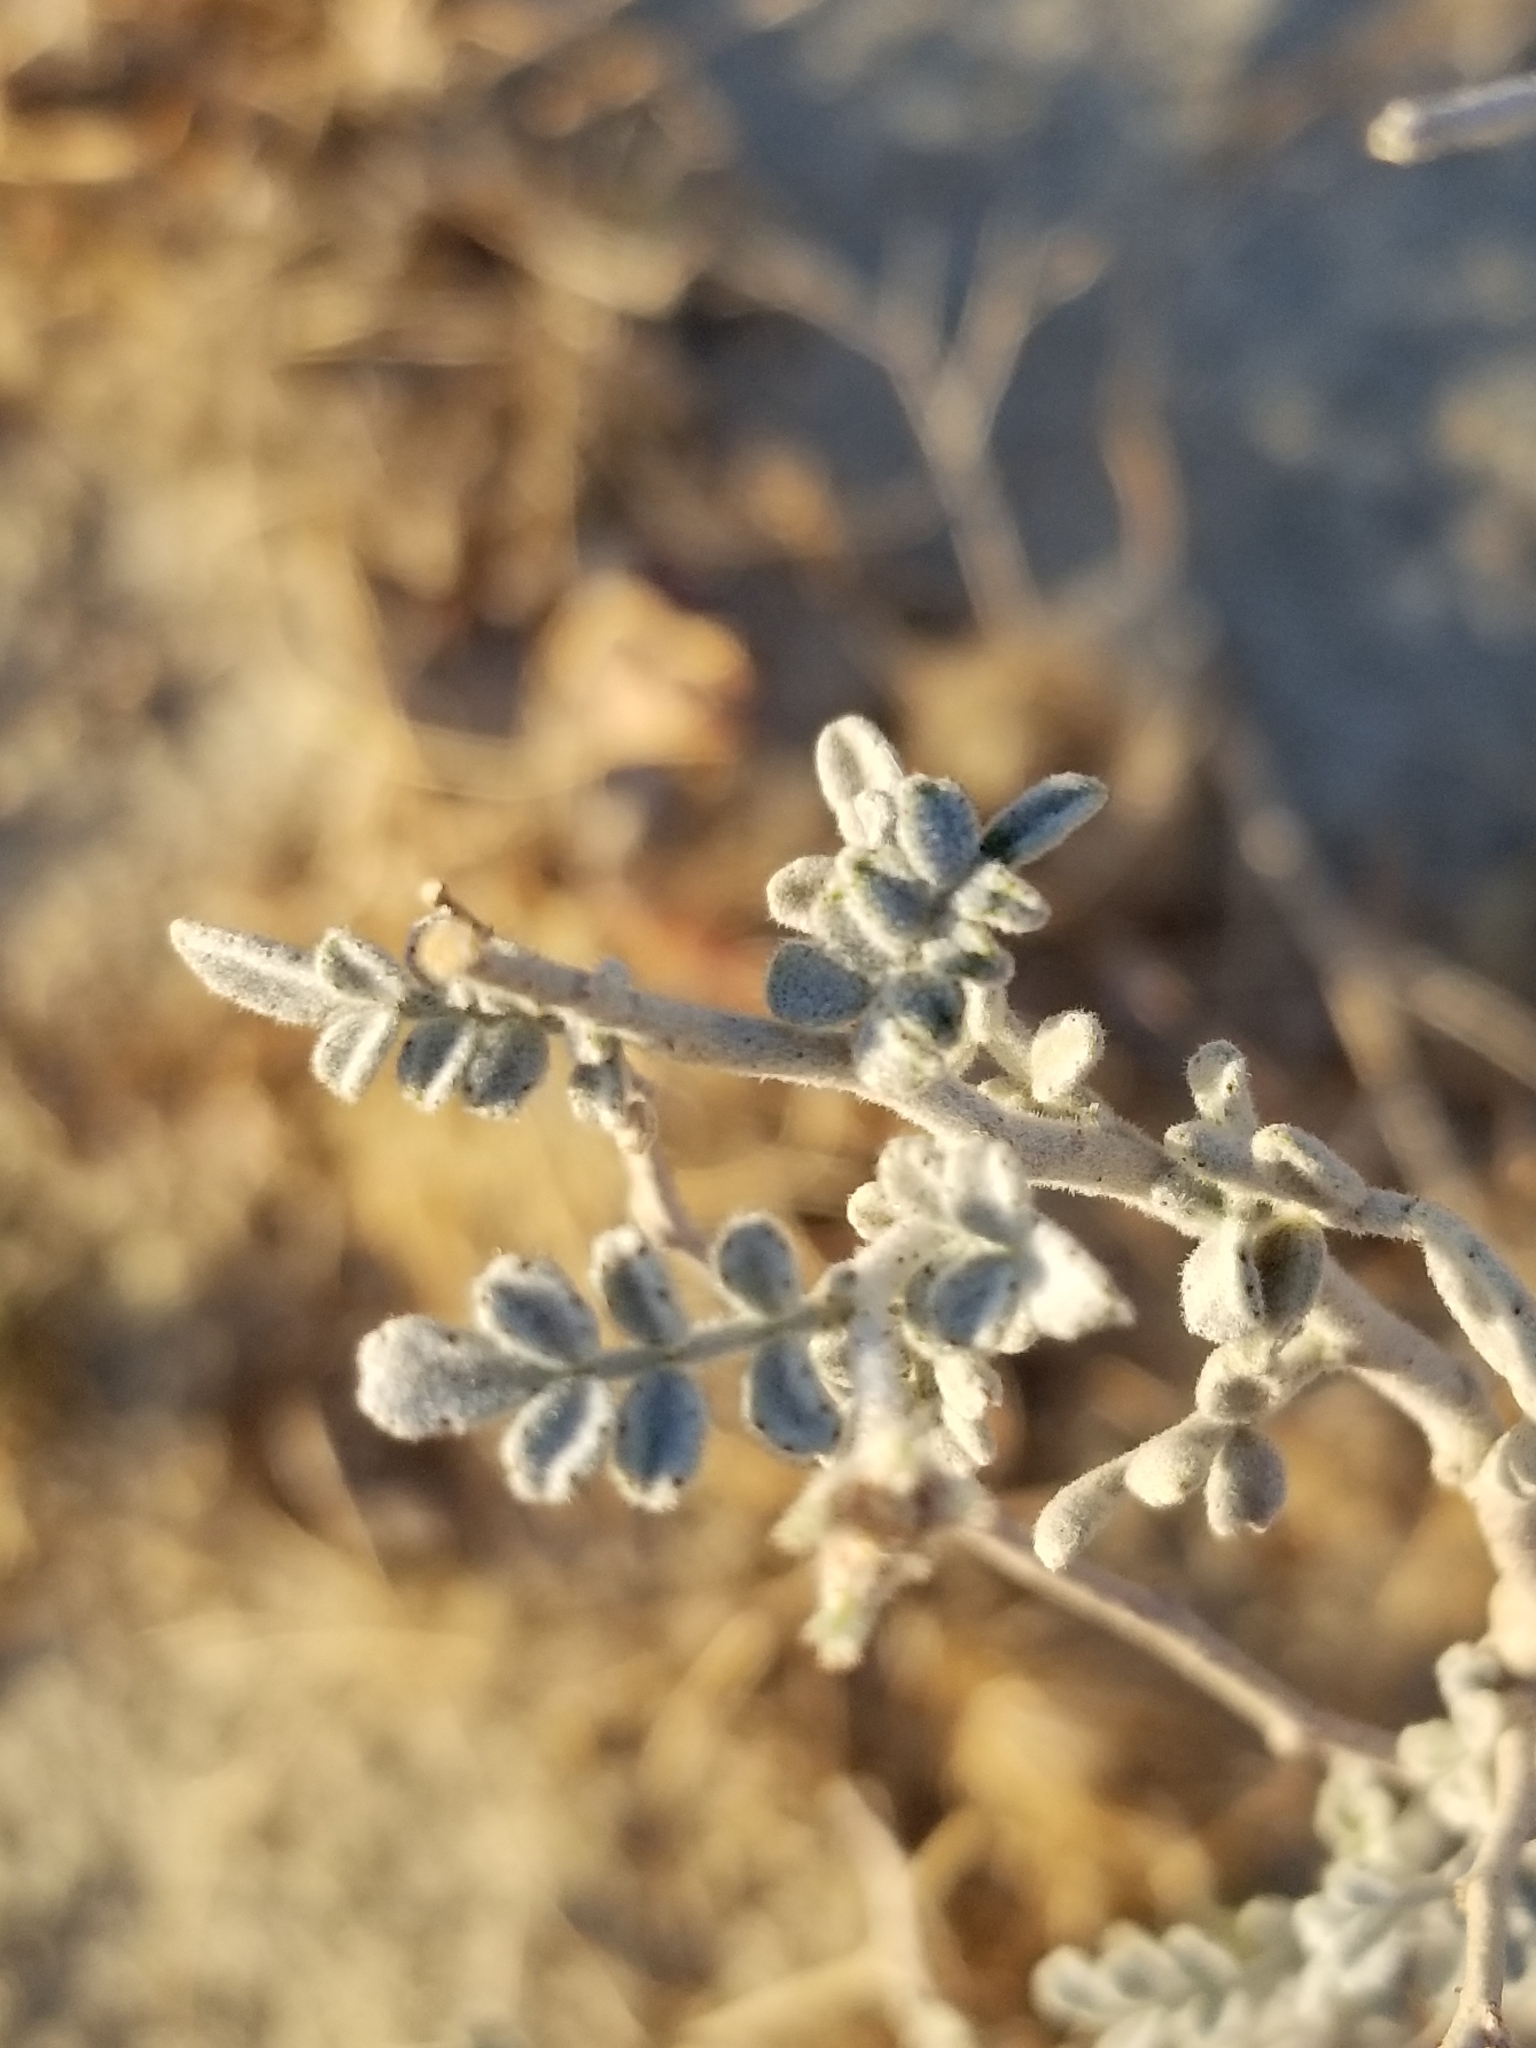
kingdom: Plantae
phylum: Tracheophyta
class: Magnoliopsida
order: Fabales
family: Fabaceae
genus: Psorothamnus
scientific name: Psorothamnus emoryi
